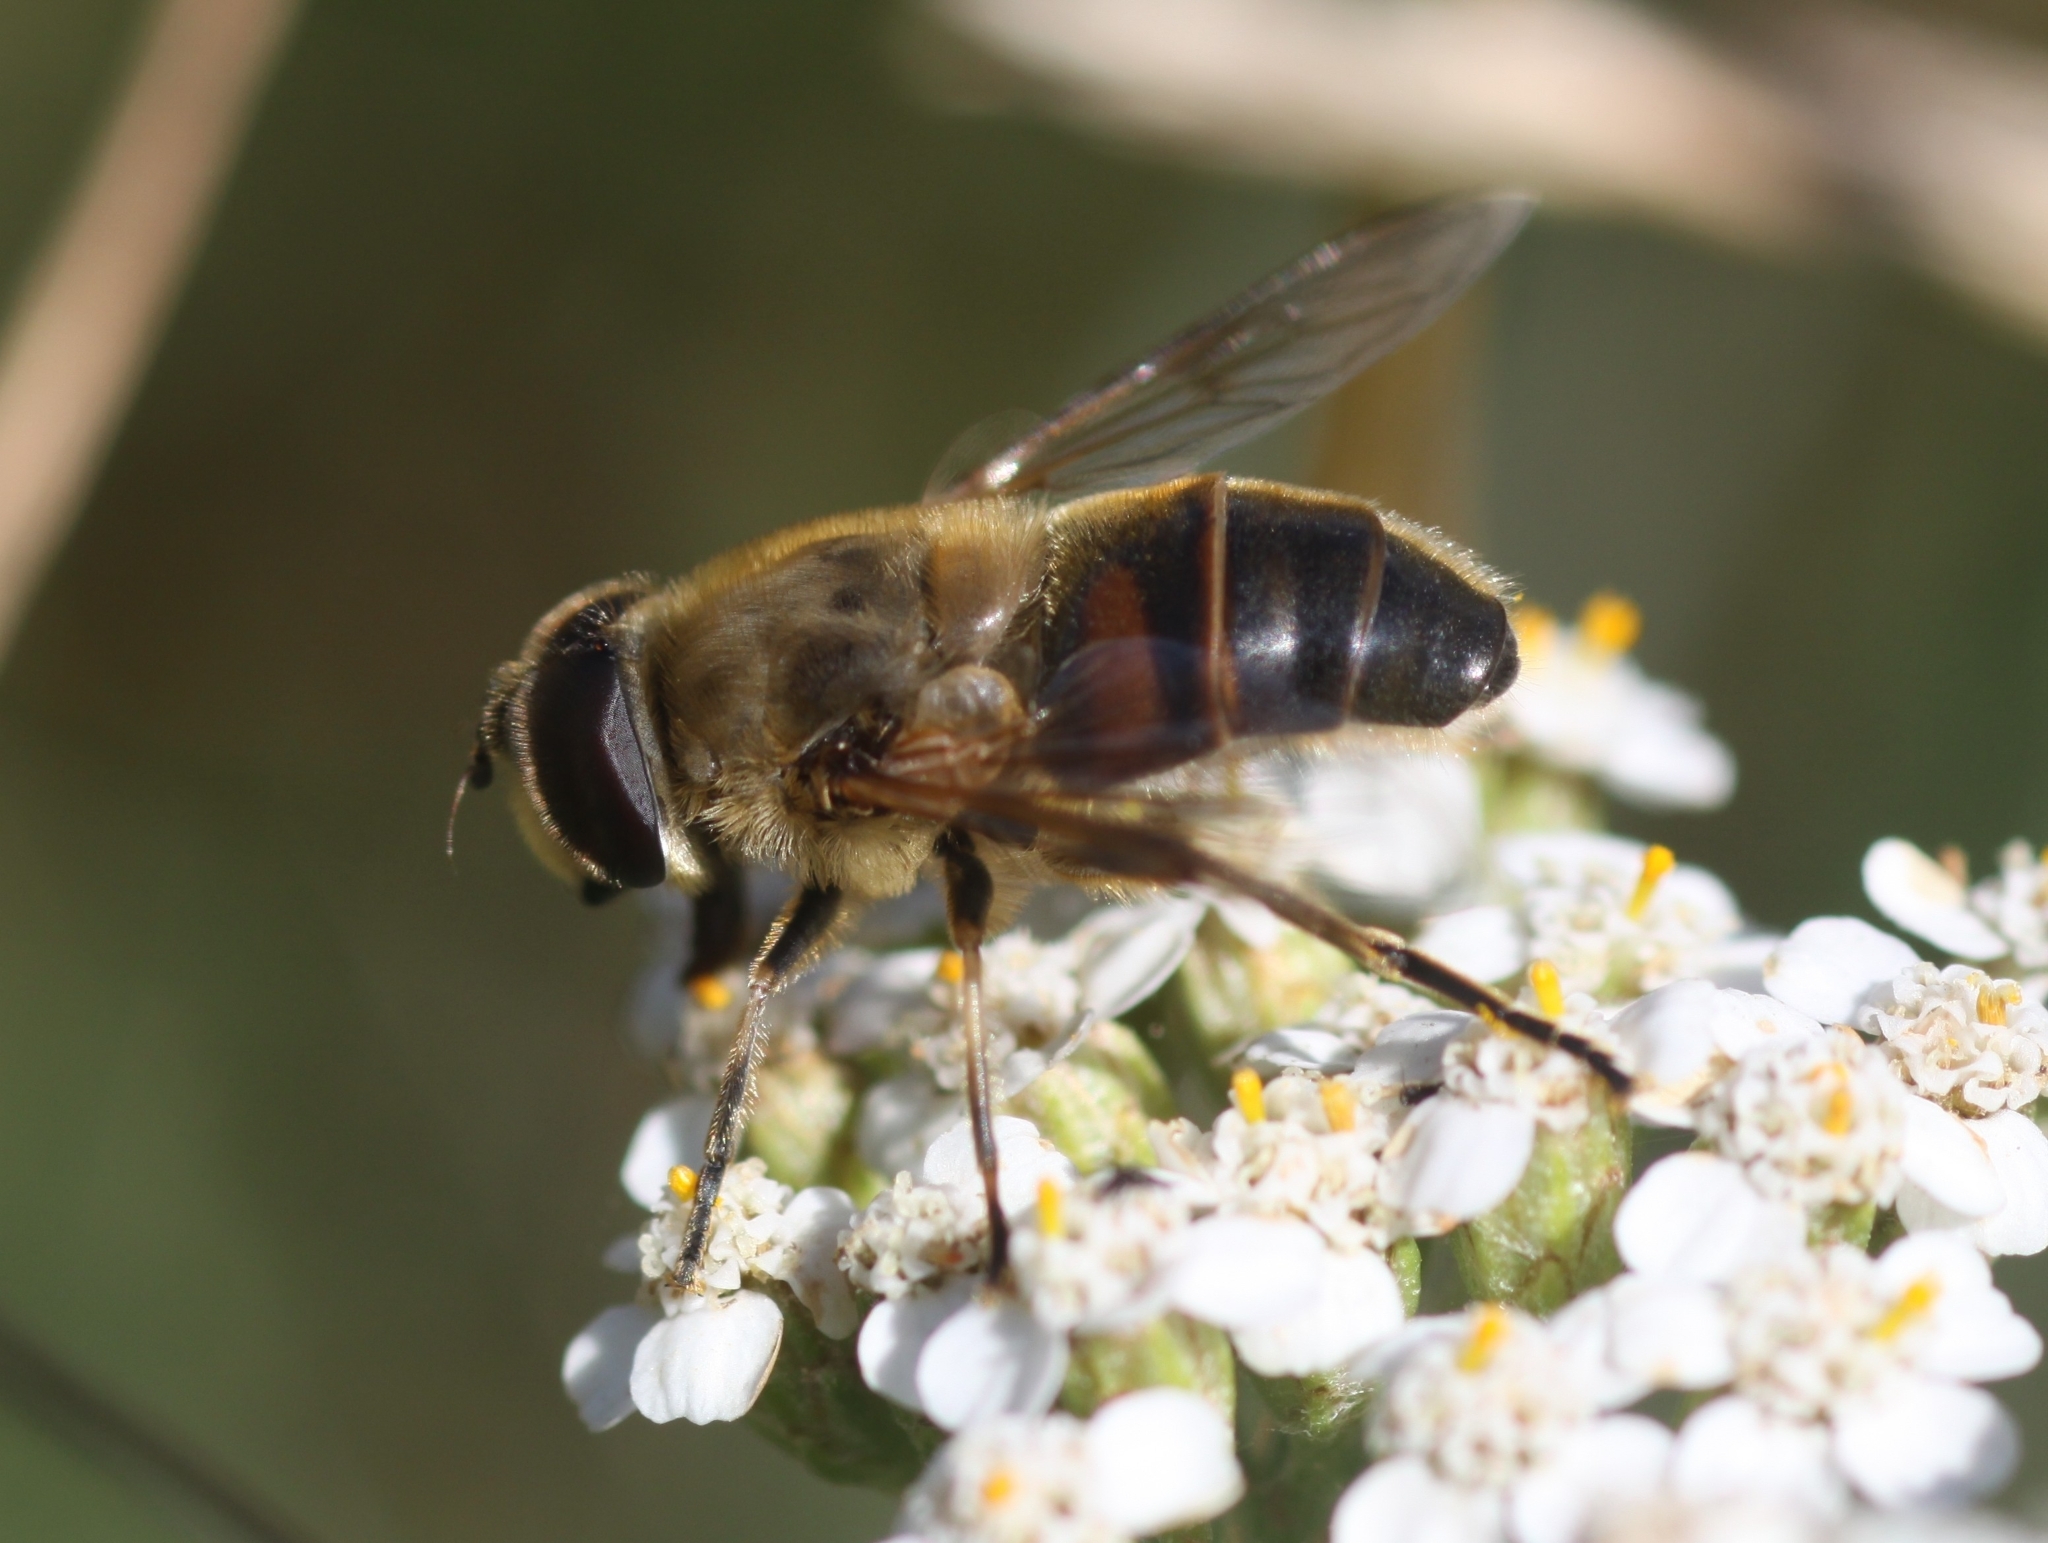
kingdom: Animalia
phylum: Arthropoda
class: Insecta
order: Diptera
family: Syrphidae
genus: Eristalis
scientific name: Eristalis tenax
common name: Drone fly
